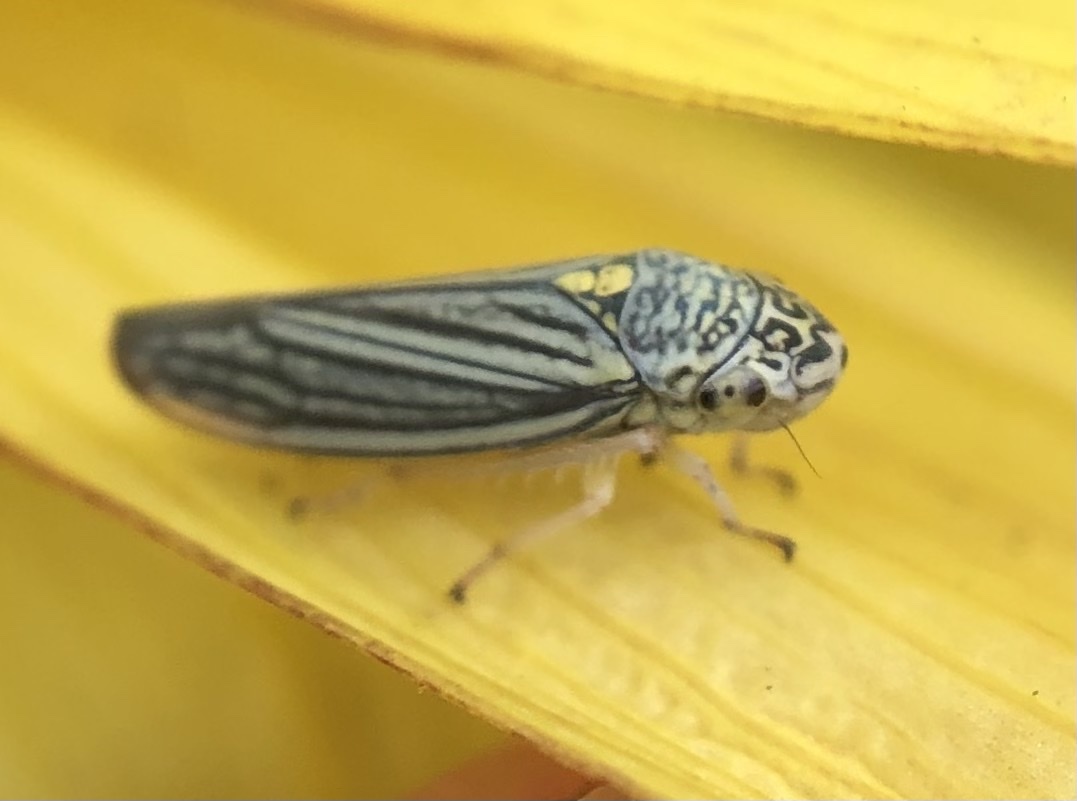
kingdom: Animalia
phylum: Arthropoda
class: Insecta
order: Hemiptera
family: Cicadellidae
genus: Neokolla
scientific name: Neokolla hieroglyphica
